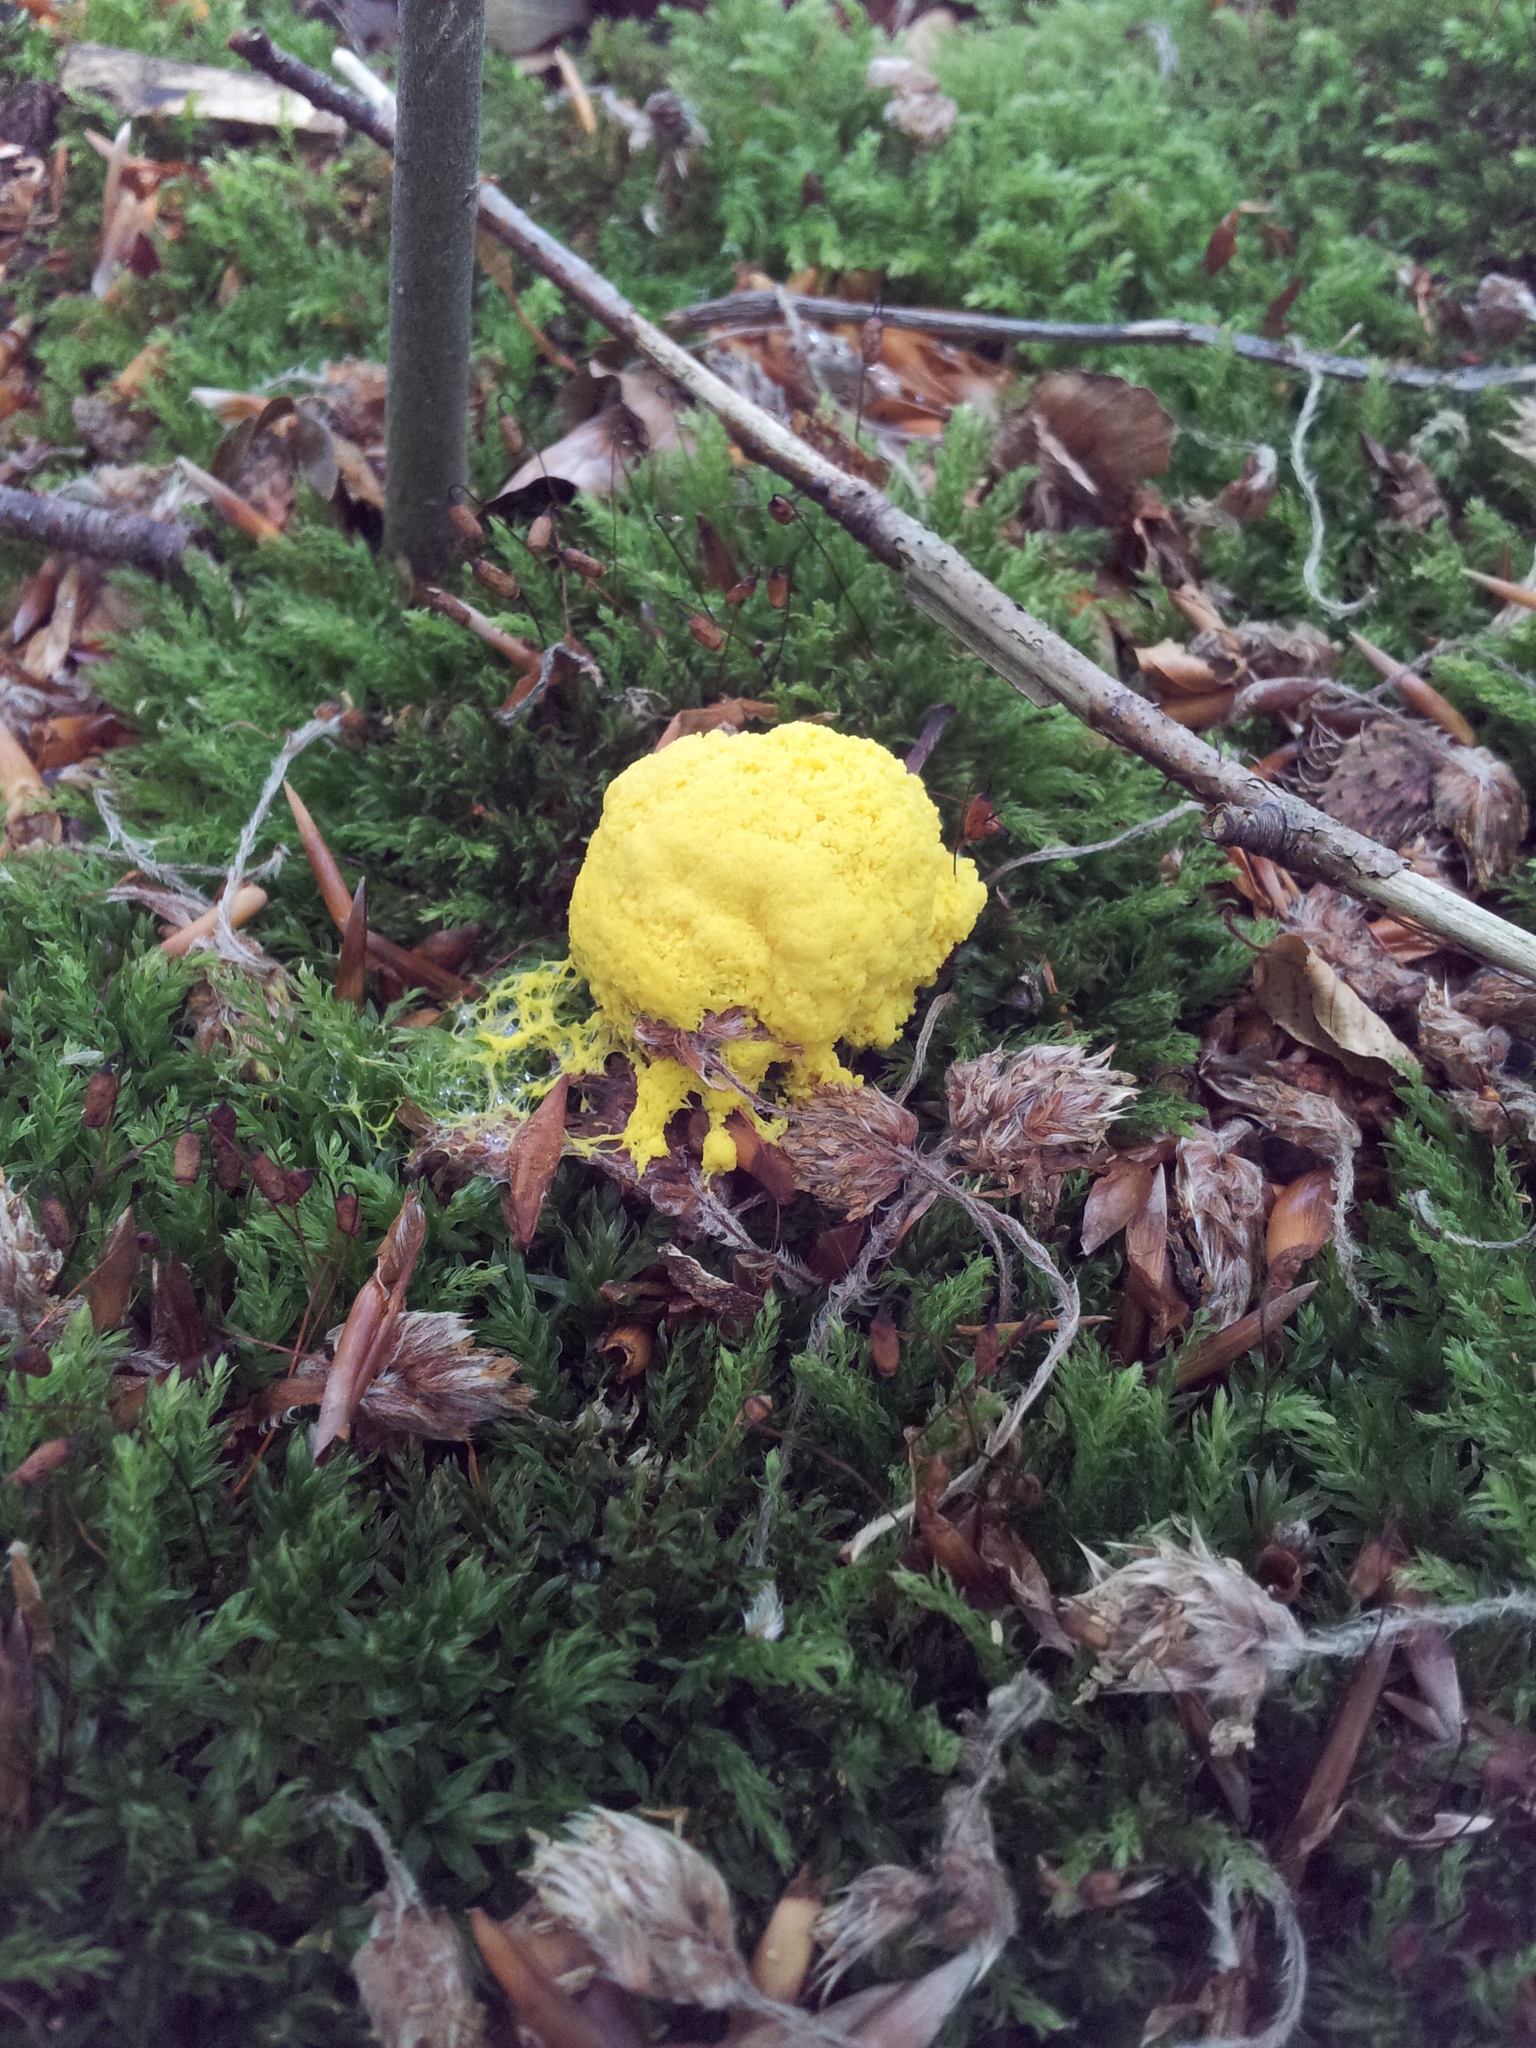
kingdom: Protozoa
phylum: Mycetozoa
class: Myxomycetes
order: Physarales
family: Physaraceae
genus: Fuligo
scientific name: Fuligo septica
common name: Dog vomit slime mold
